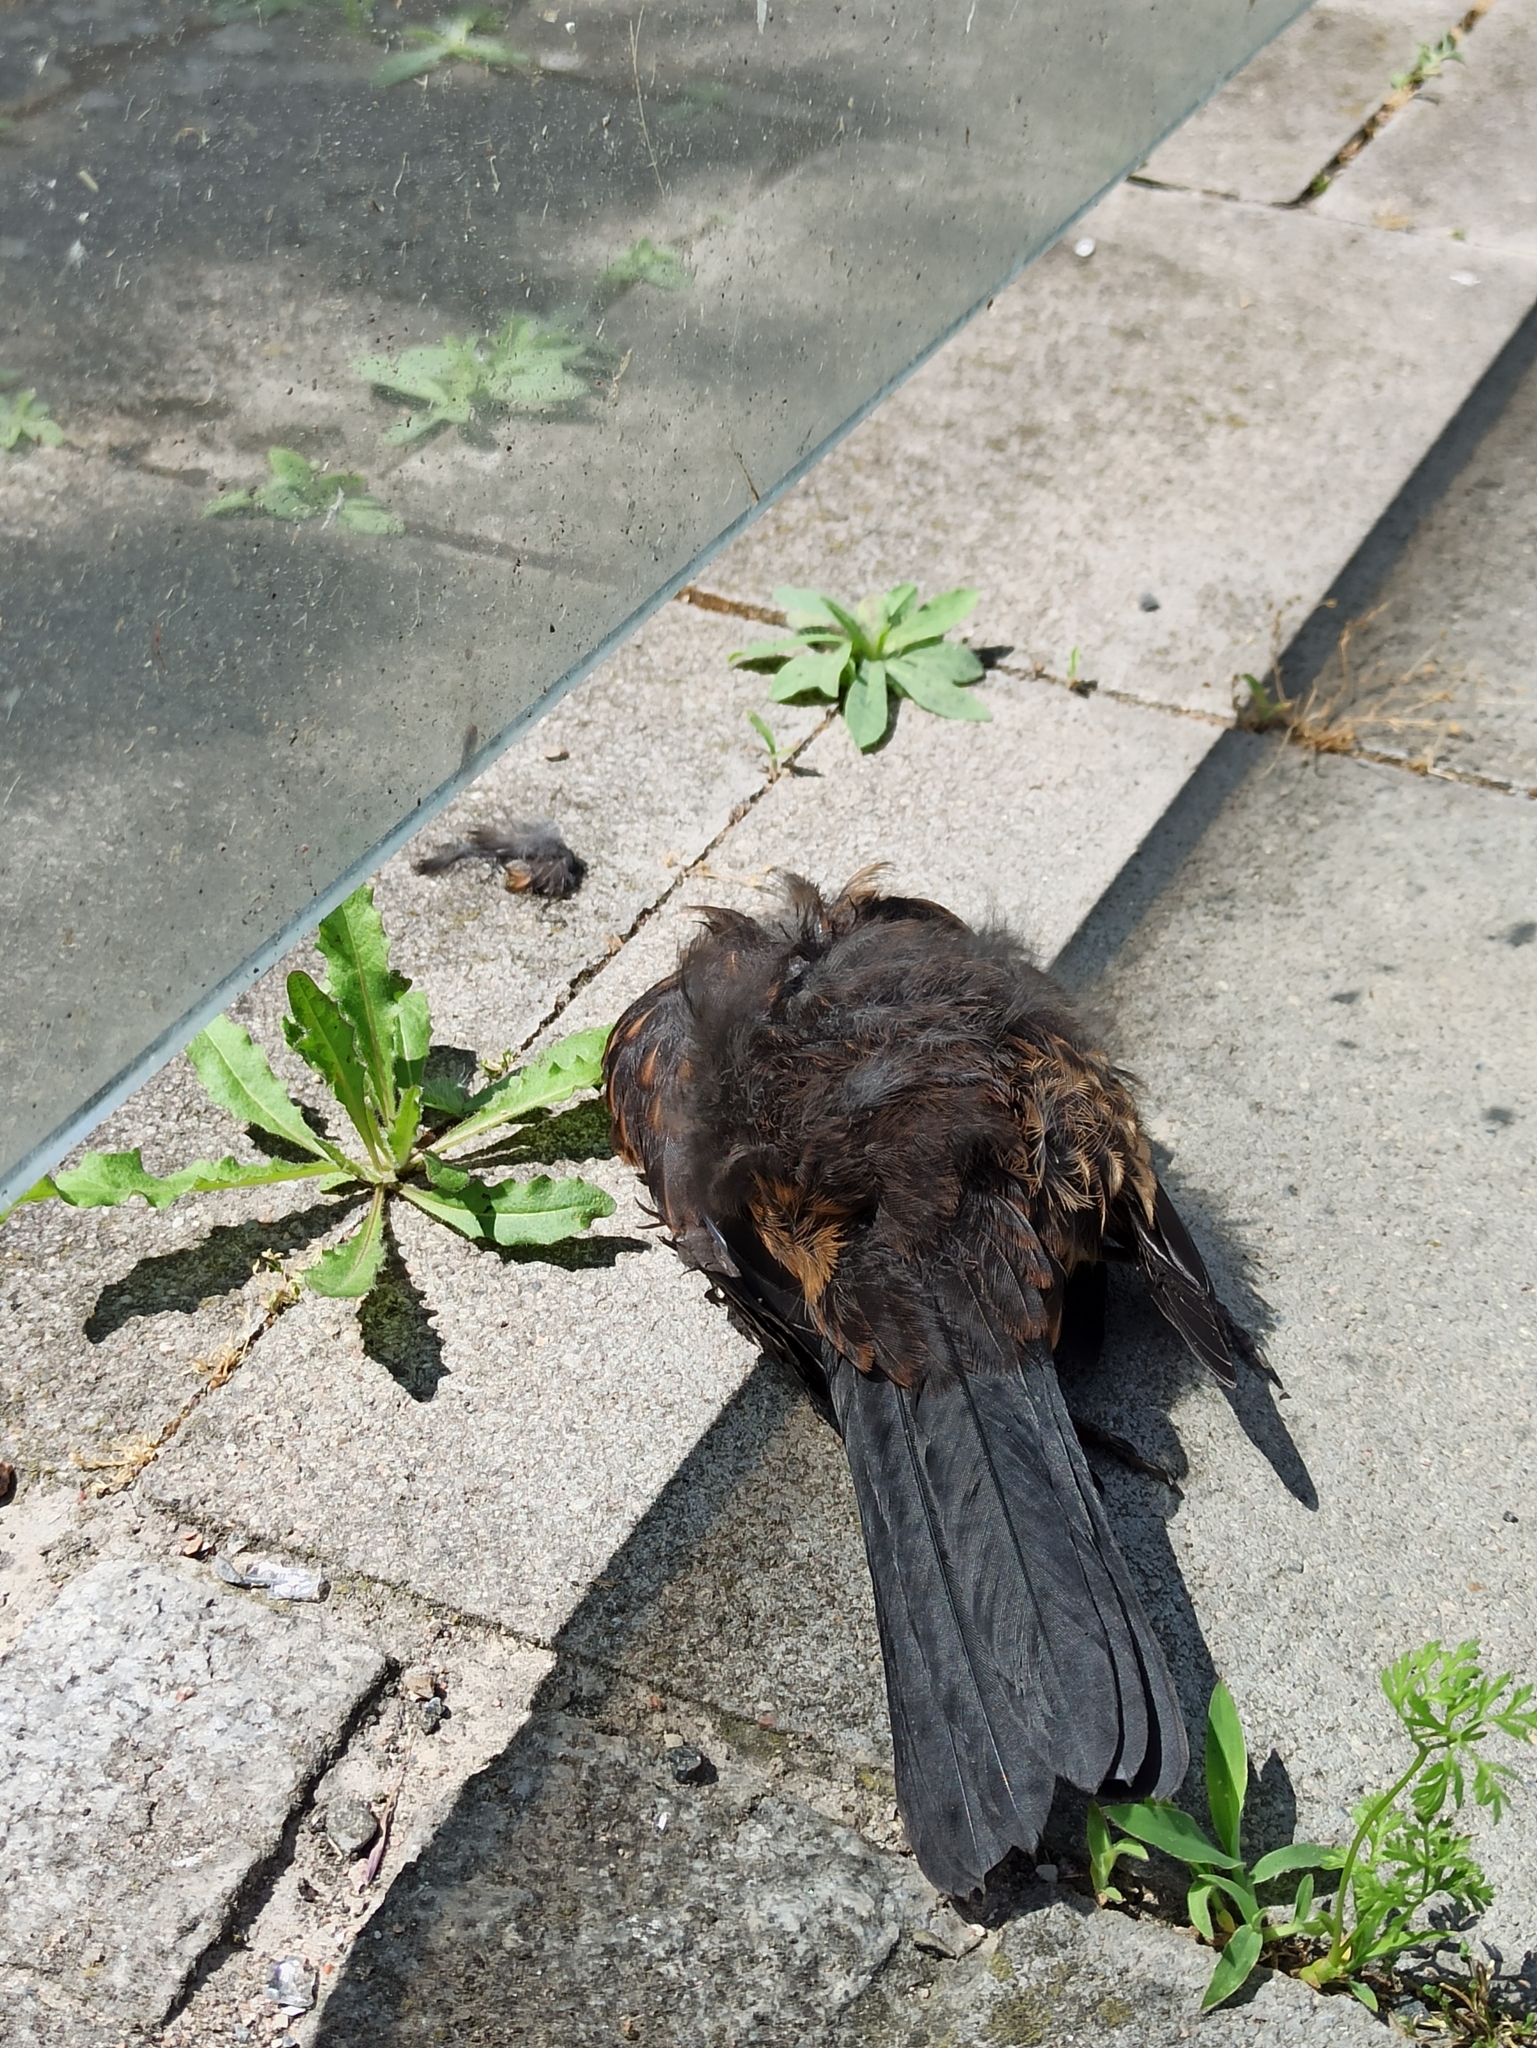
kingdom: Animalia
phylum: Chordata
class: Aves
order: Passeriformes
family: Turdidae
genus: Turdus
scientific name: Turdus merula
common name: Common blackbird
